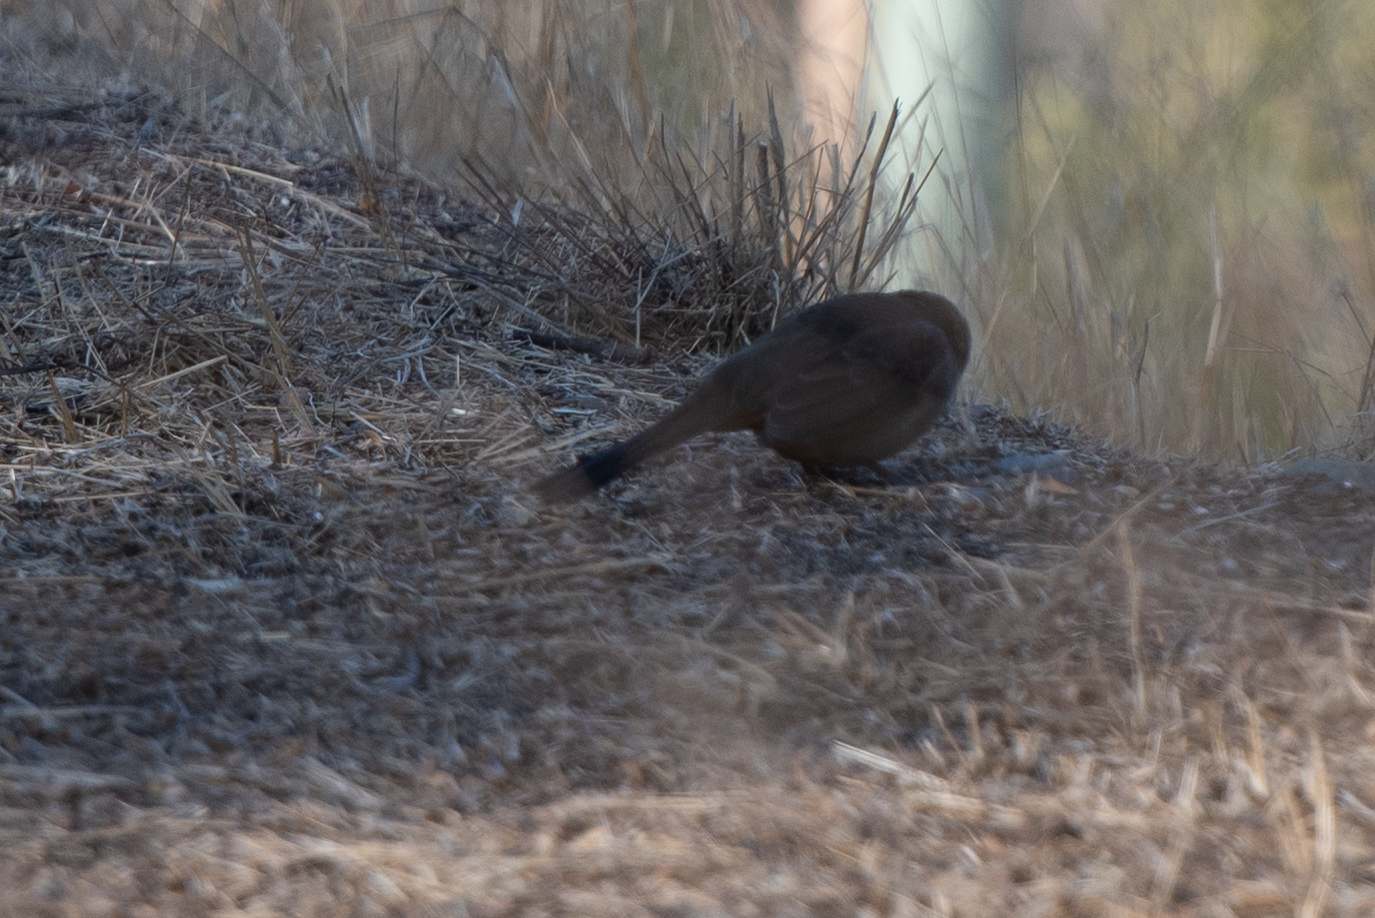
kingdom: Animalia
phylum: Chordata
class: Aves
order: Passeriformes
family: Passerellidae
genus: Melozone
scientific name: Melozone crissalis
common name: California towhee
